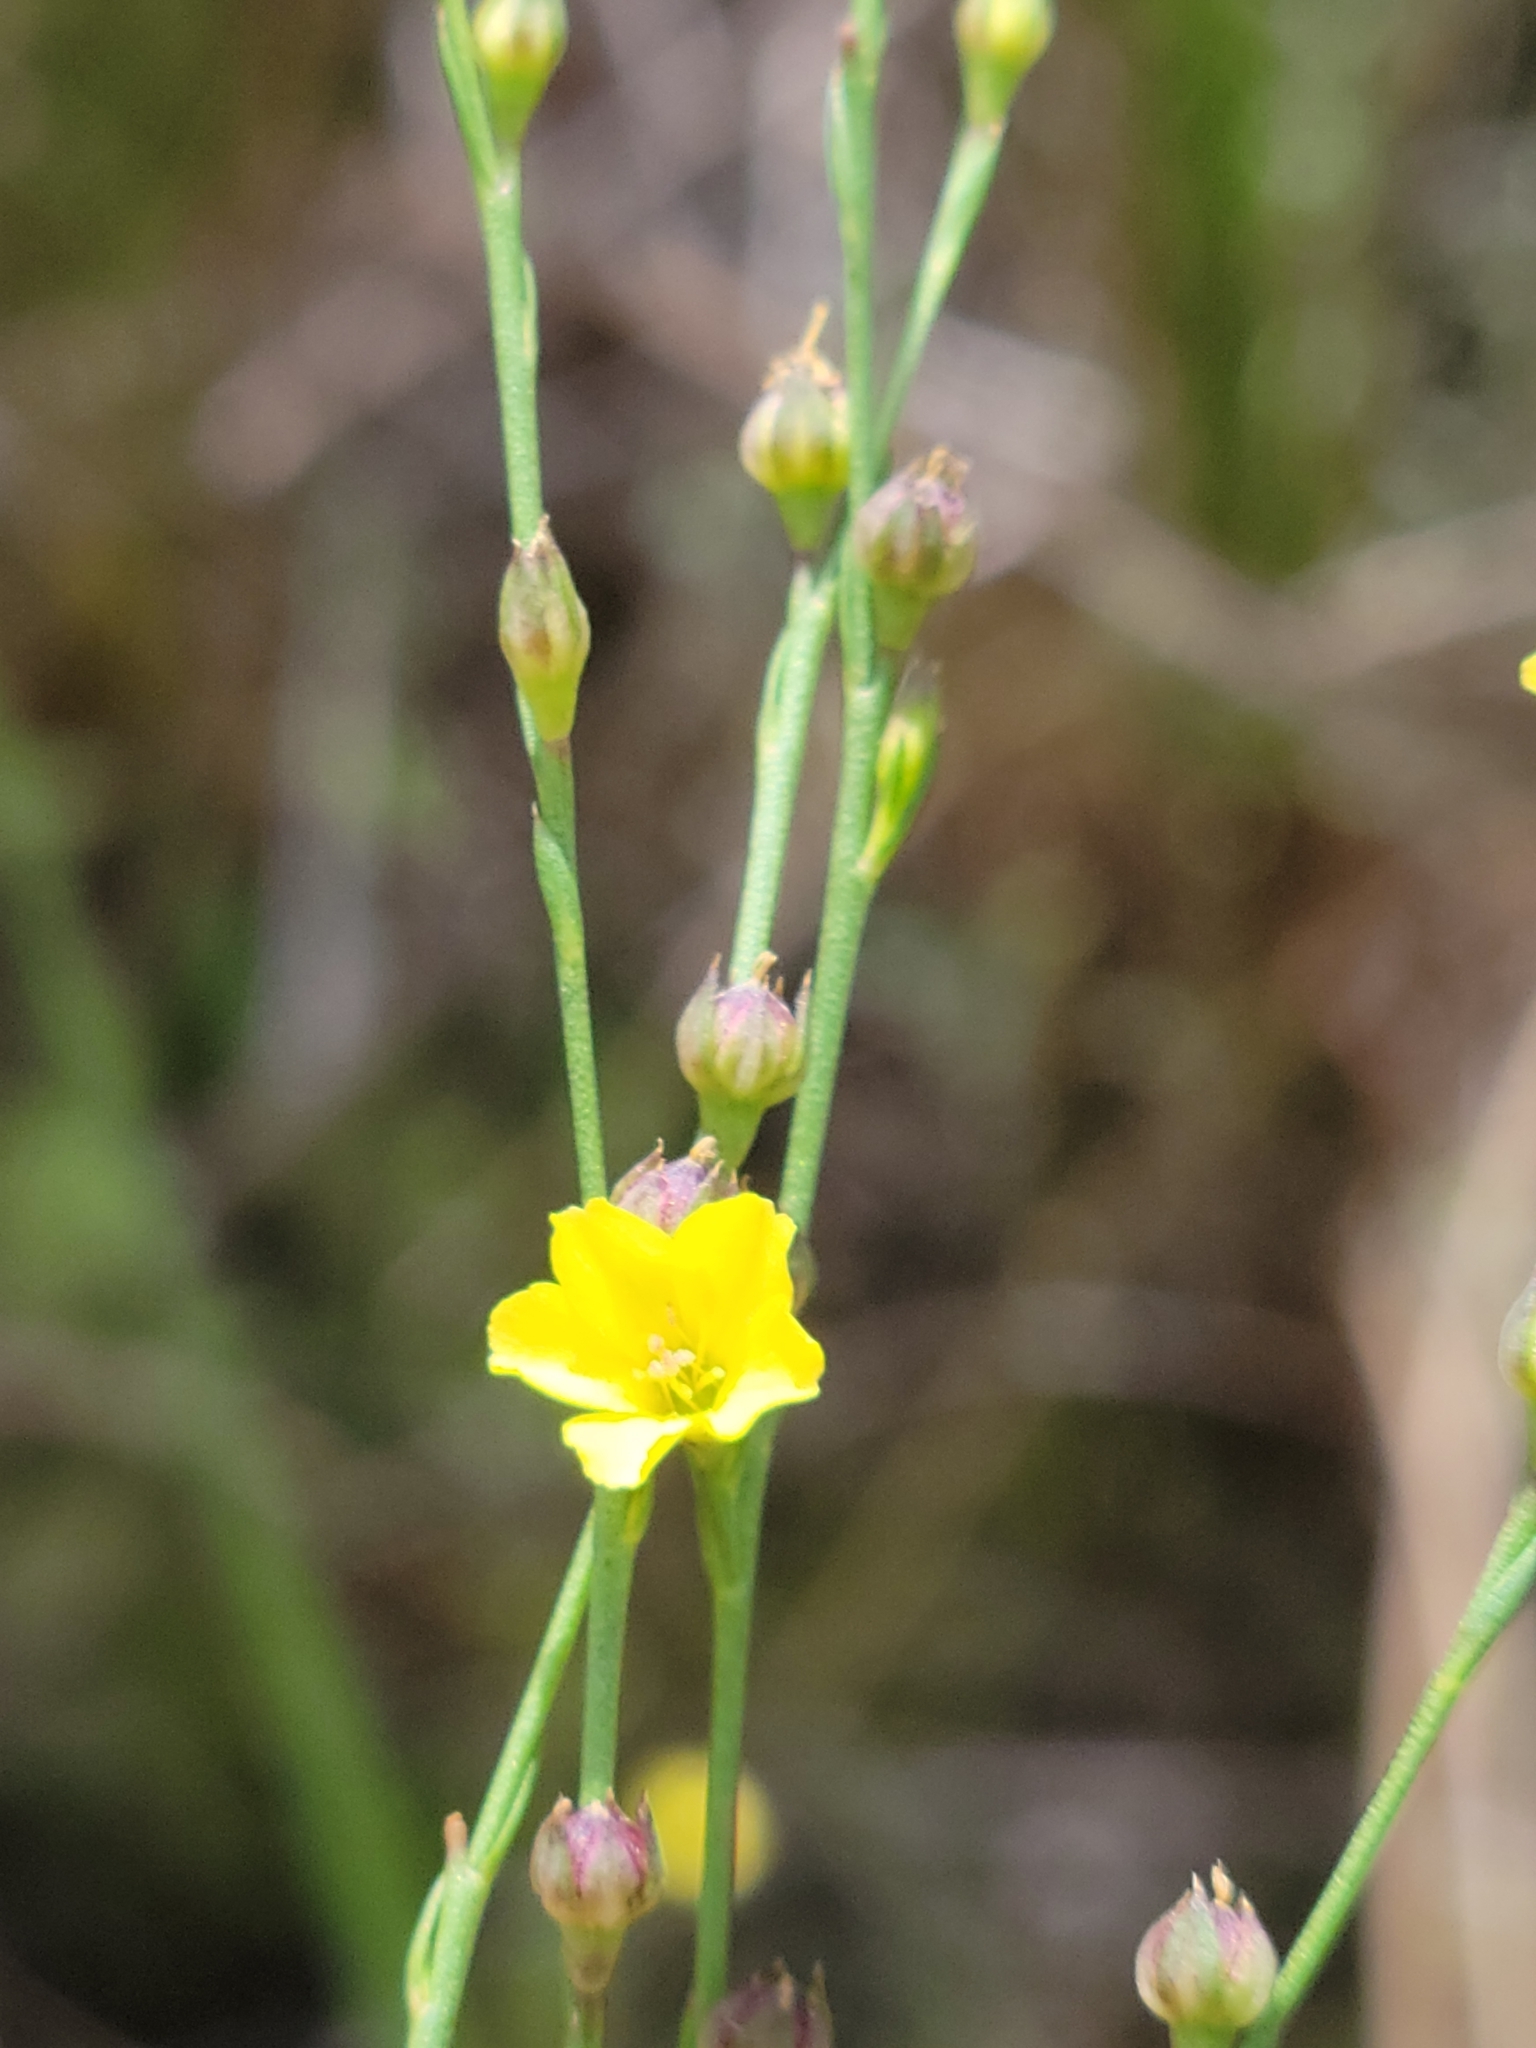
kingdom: Plantae
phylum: Tracheophyta
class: Magnoliopsida
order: Malpighiales
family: Linaceae
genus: Linum
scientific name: Linum medium
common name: Stiff yellow flax
